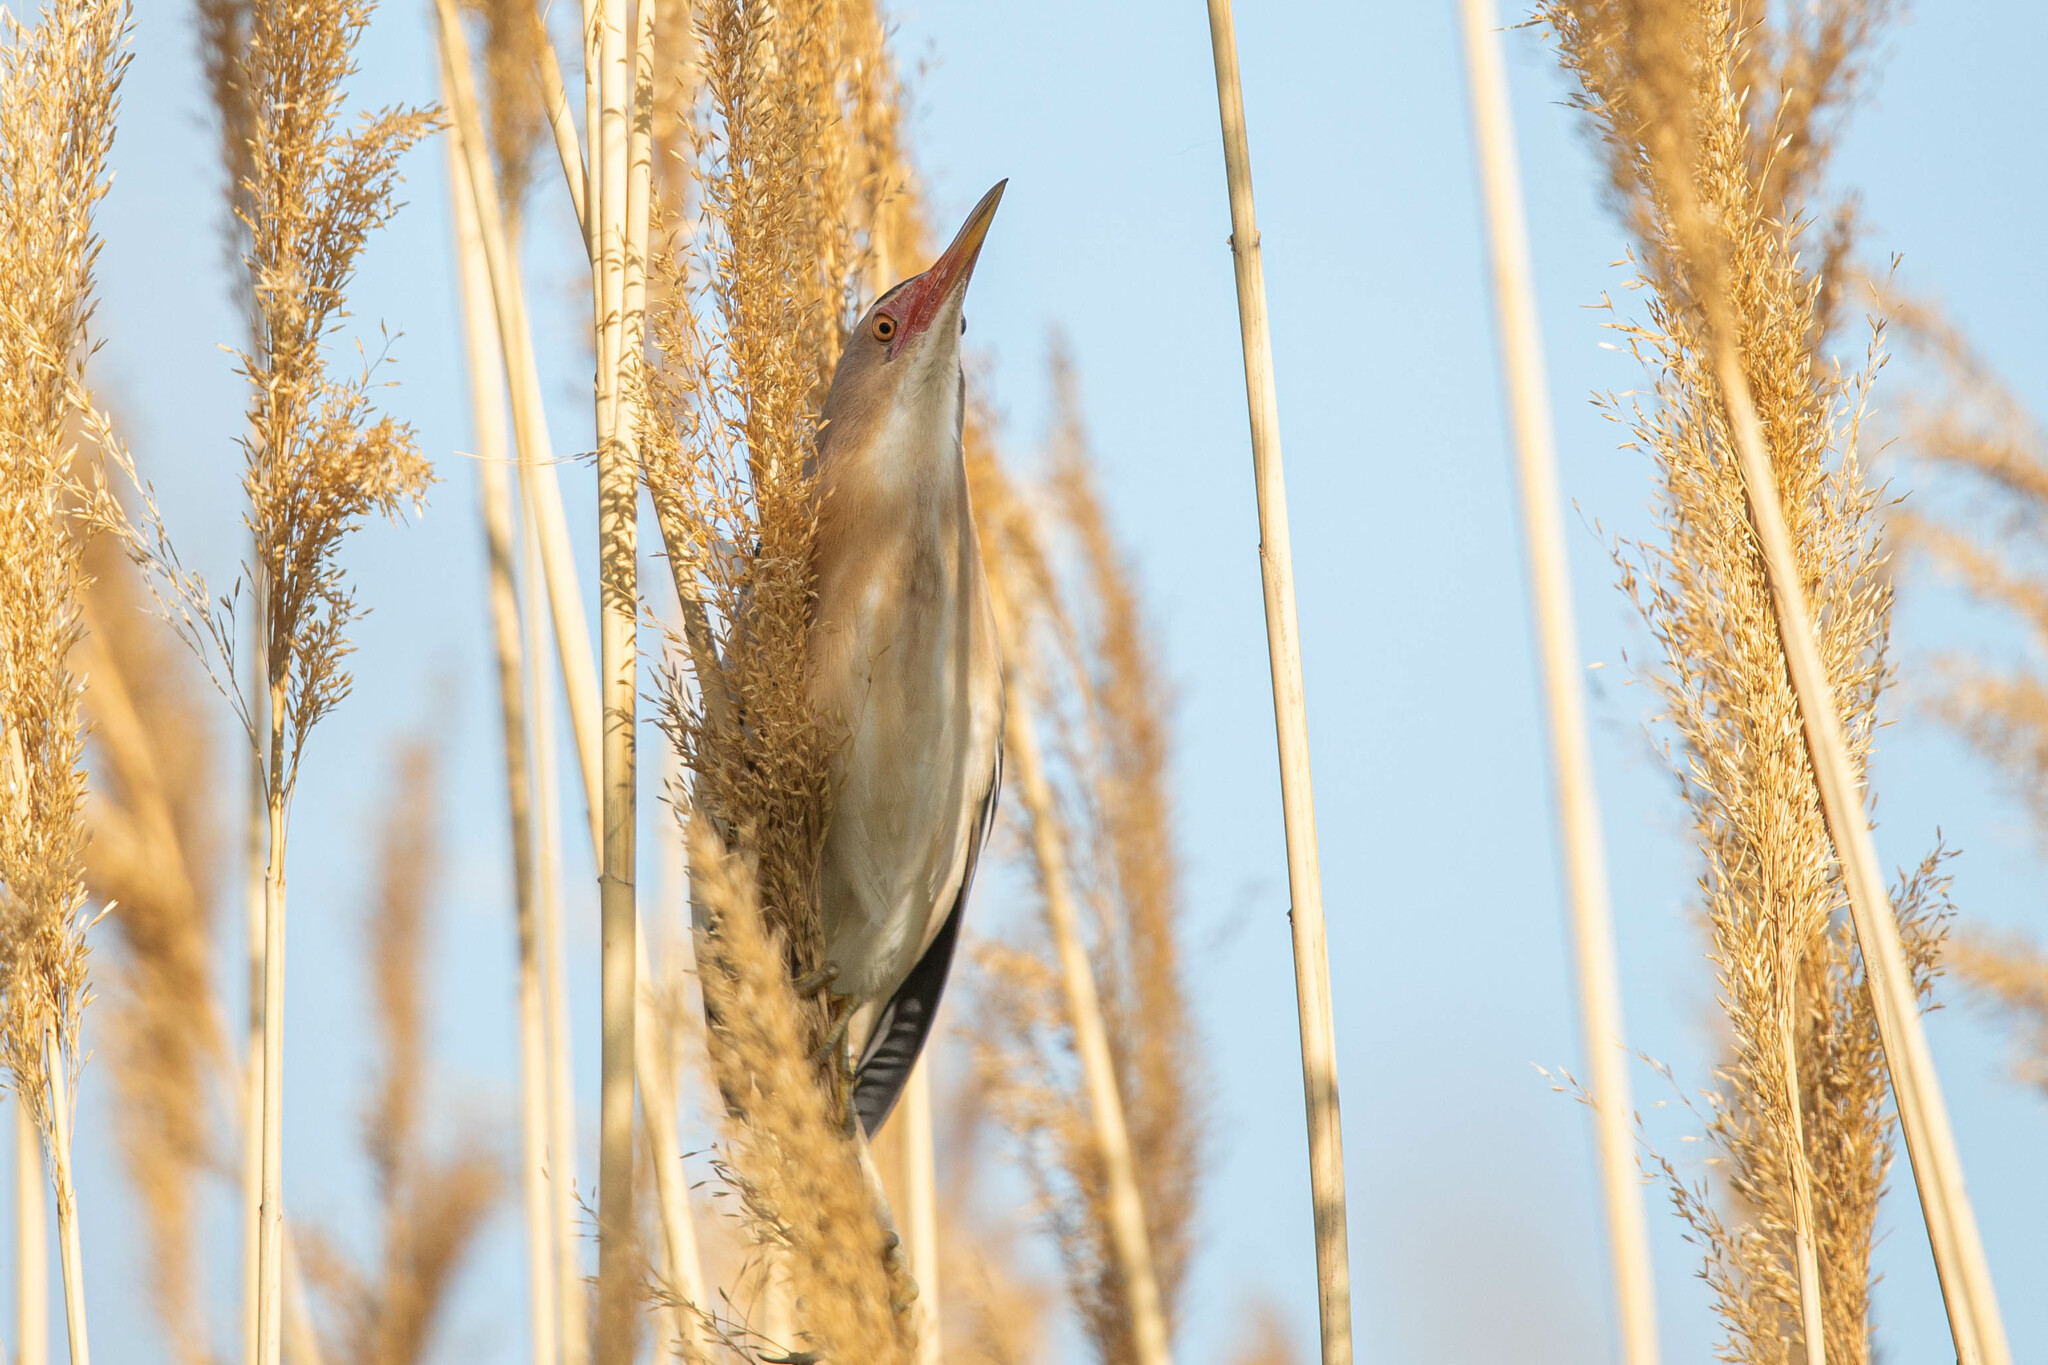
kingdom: Animalia
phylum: Chordata
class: Aves
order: Pelecaniformes
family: Ardeidae
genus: Ixobrychus
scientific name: Ixobrychus minutus
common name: Little bittern
